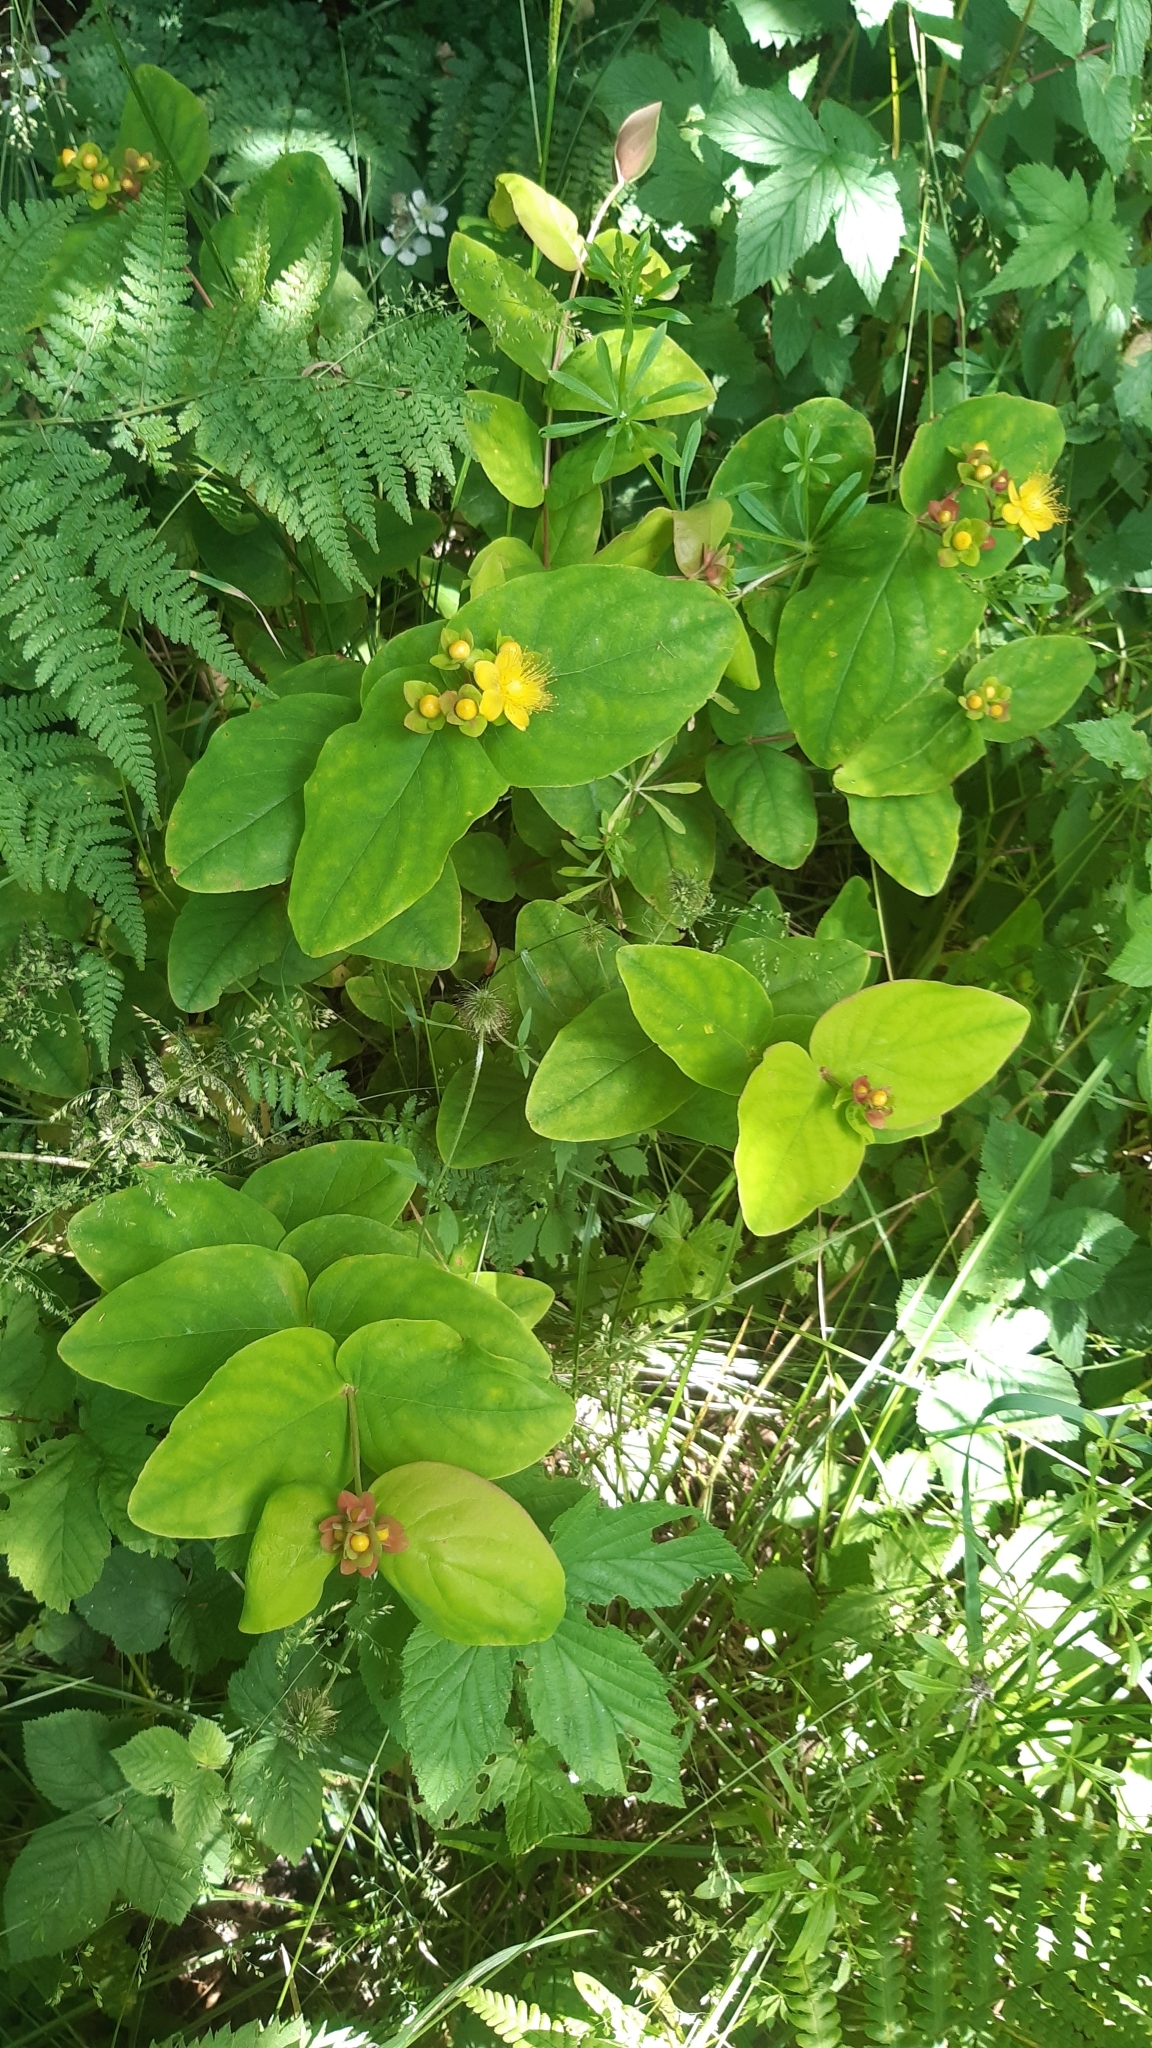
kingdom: Plantae
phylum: Tracheophyta
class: Magnoliopsida
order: Malpighiales
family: Hypericaceae
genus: Hypericum
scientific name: Hypericum androsaemum
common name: Sweet-amber
